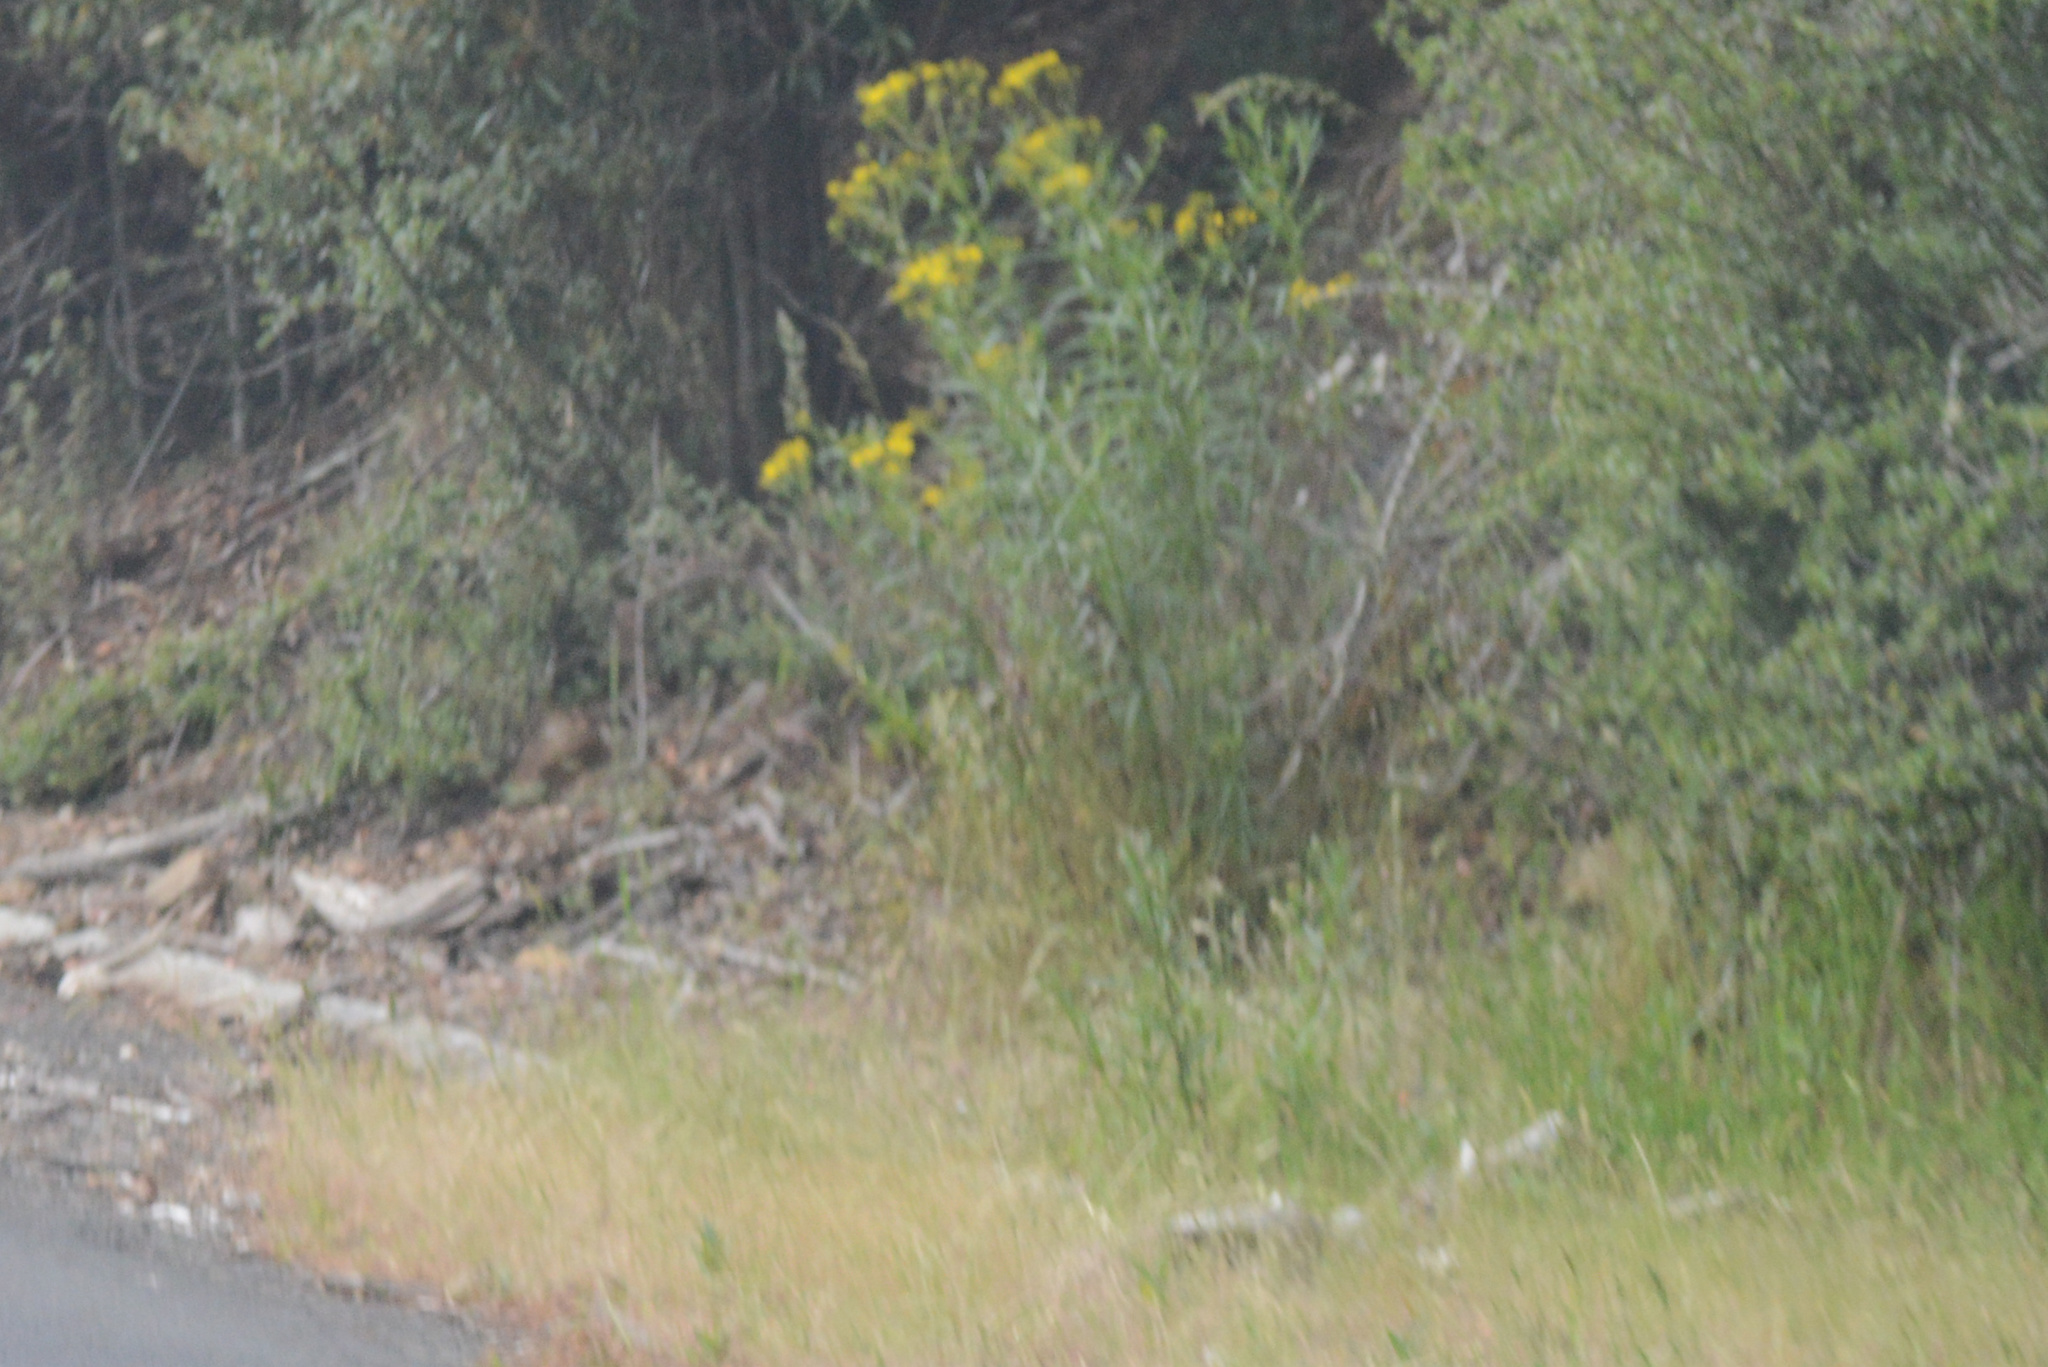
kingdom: Plantae
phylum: Tracheophyta
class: Magnoliopsida
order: Asterales
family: Asteraceae
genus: Senecio
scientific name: Senecio linearifolius
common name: Fireweed groundsel
